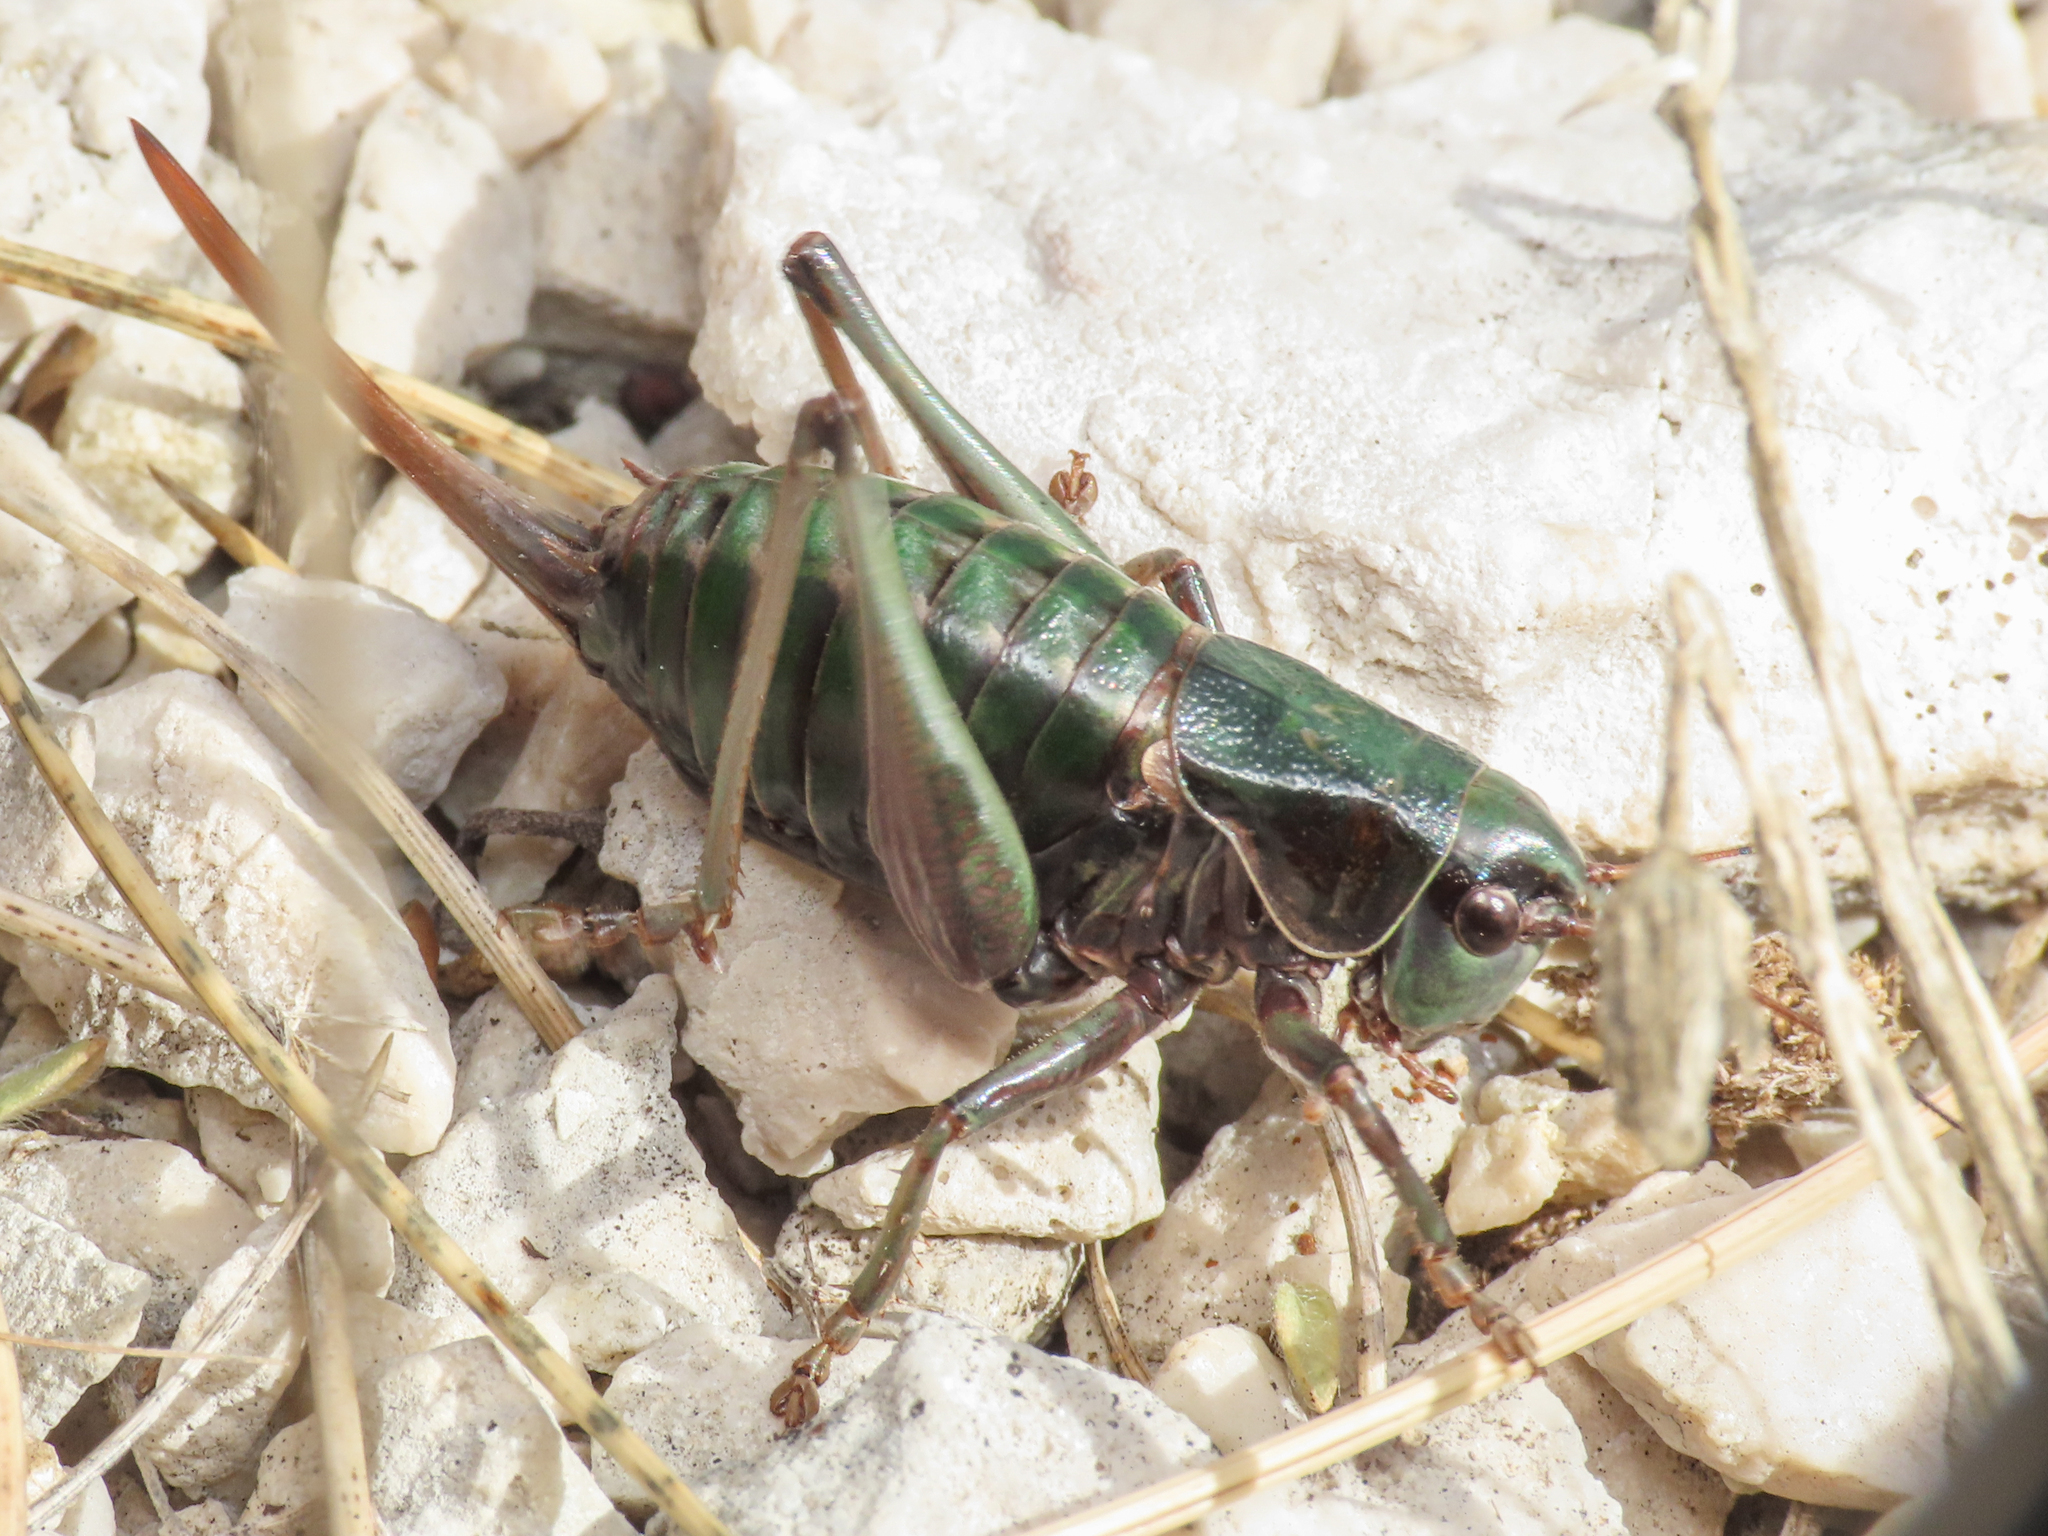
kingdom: Animalia
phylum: Arthropoda
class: Insecta
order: Orthoptera
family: Tettigoniidae
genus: Anonconotus
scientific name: Anonconotus sibyllinus
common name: Sibylline alpine bush-cricket
